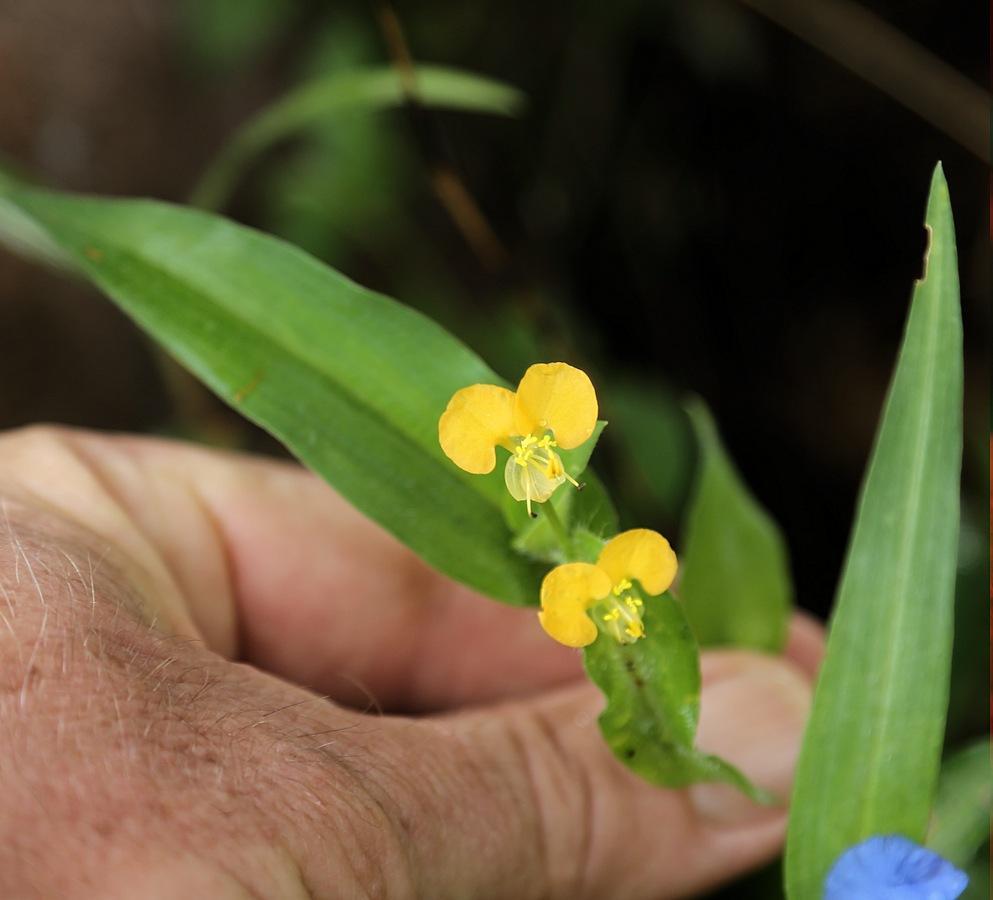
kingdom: Plantae
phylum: Tracheophyta
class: Liliopsida
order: Commelinales
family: Commelinaceae
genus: Commelina
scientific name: Commelina africana
